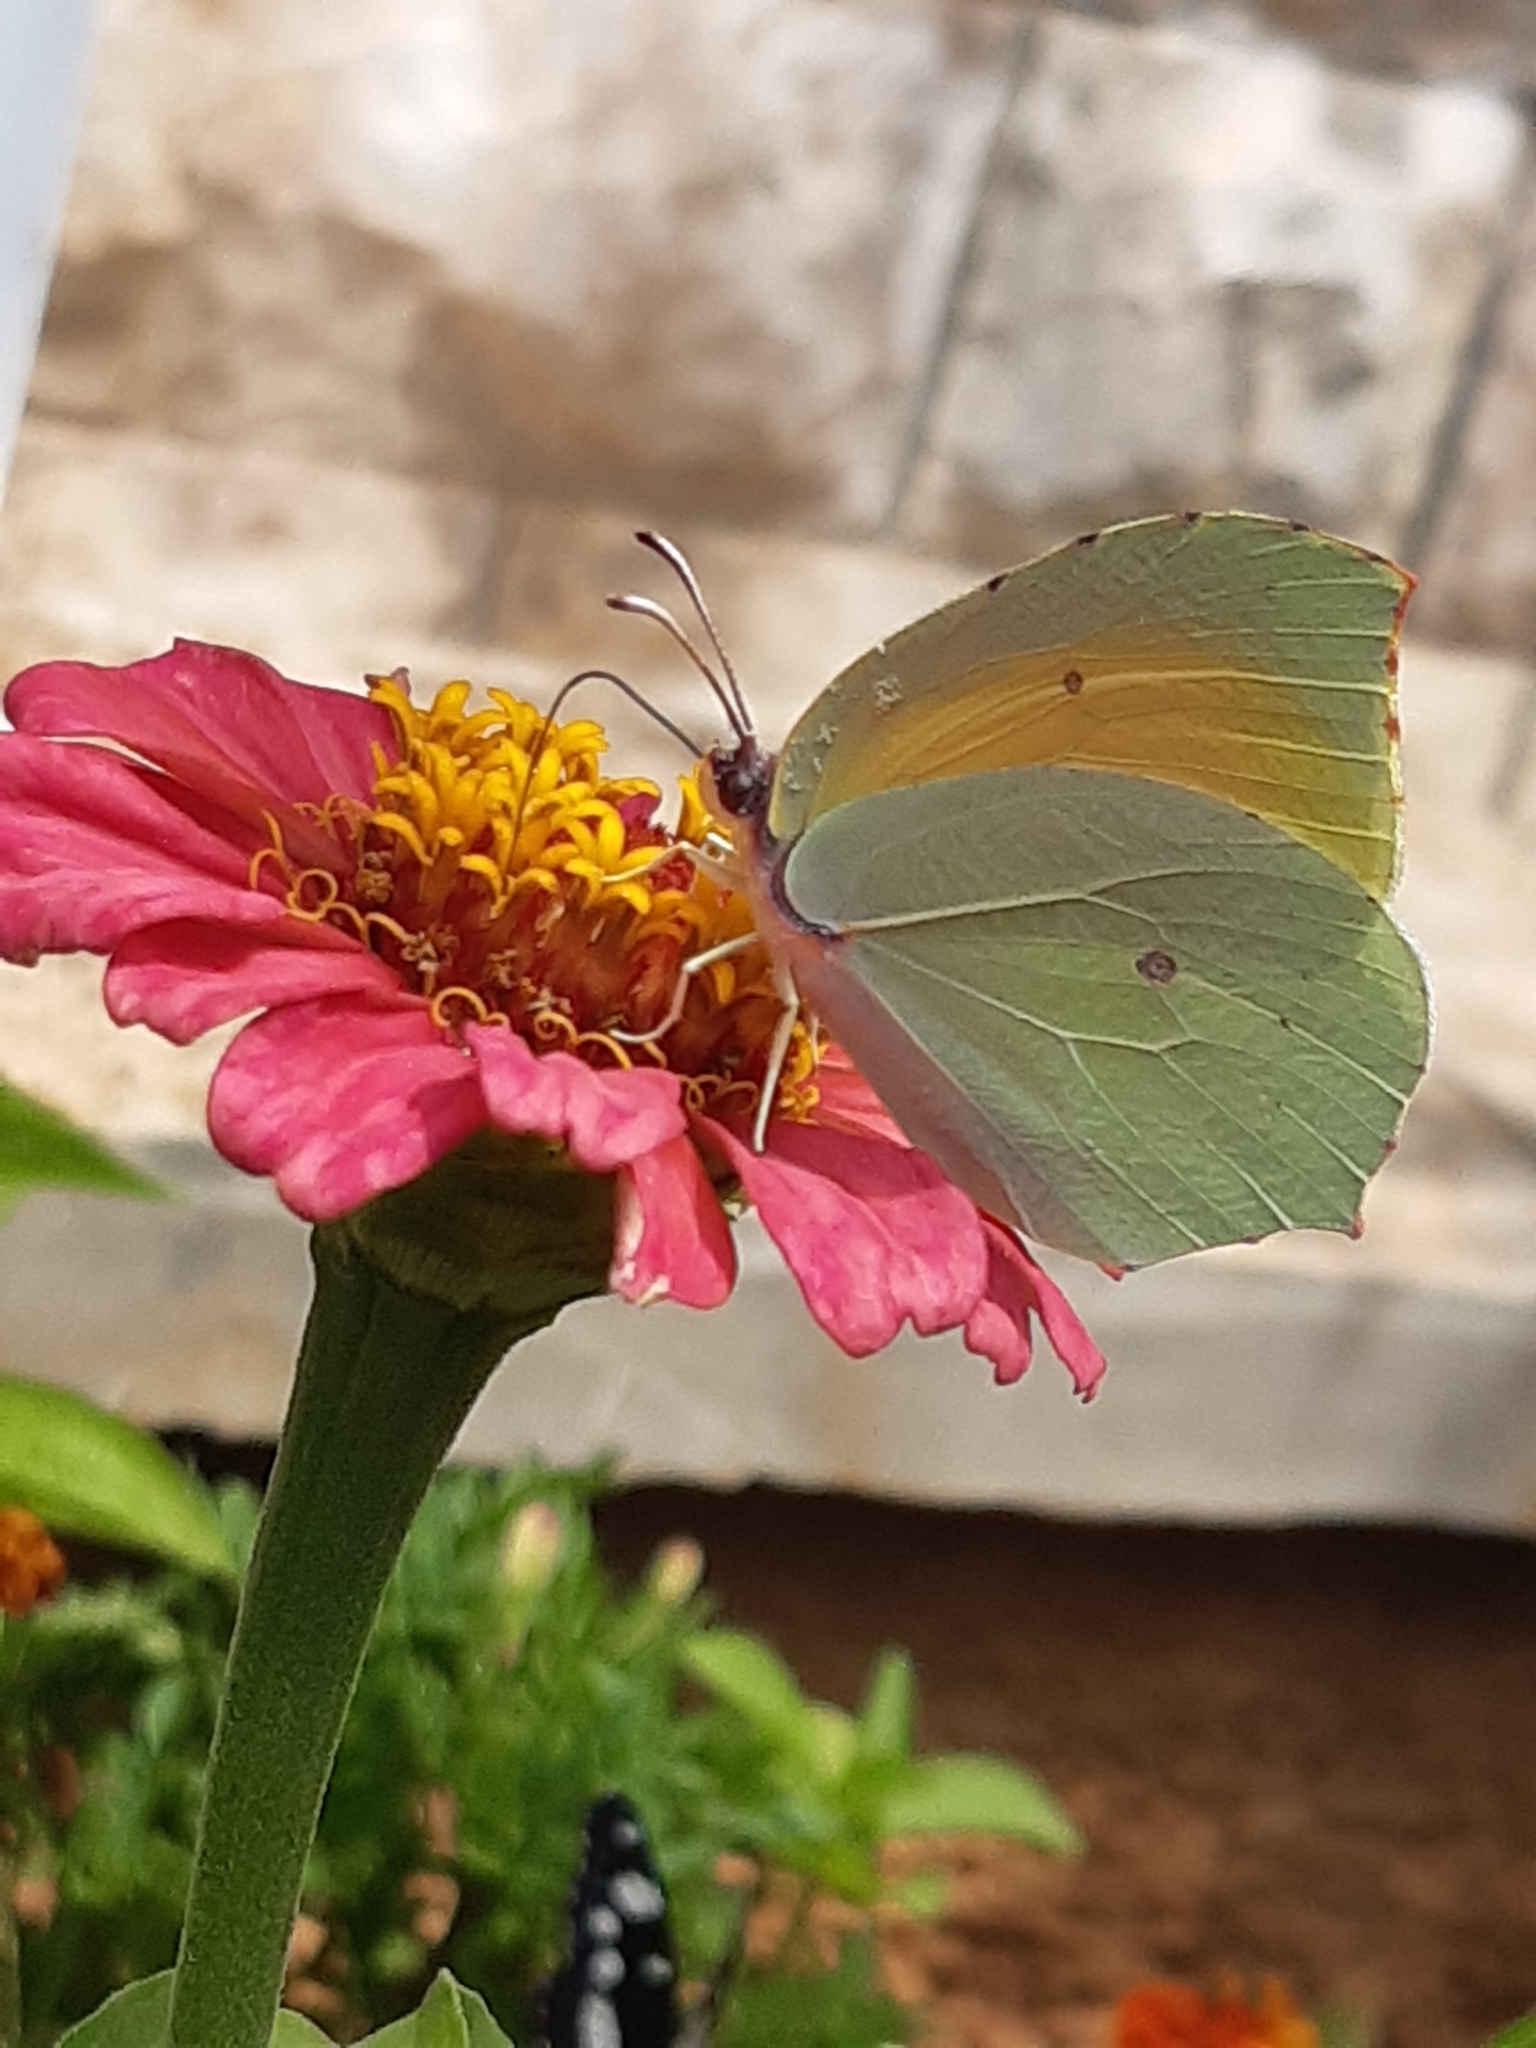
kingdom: Animalia
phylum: Arthropoda
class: Insecta
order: Lepidoptera
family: Pieridae
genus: Gonepteryx
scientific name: Gonepteryx cleopatra
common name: Cleopatra
